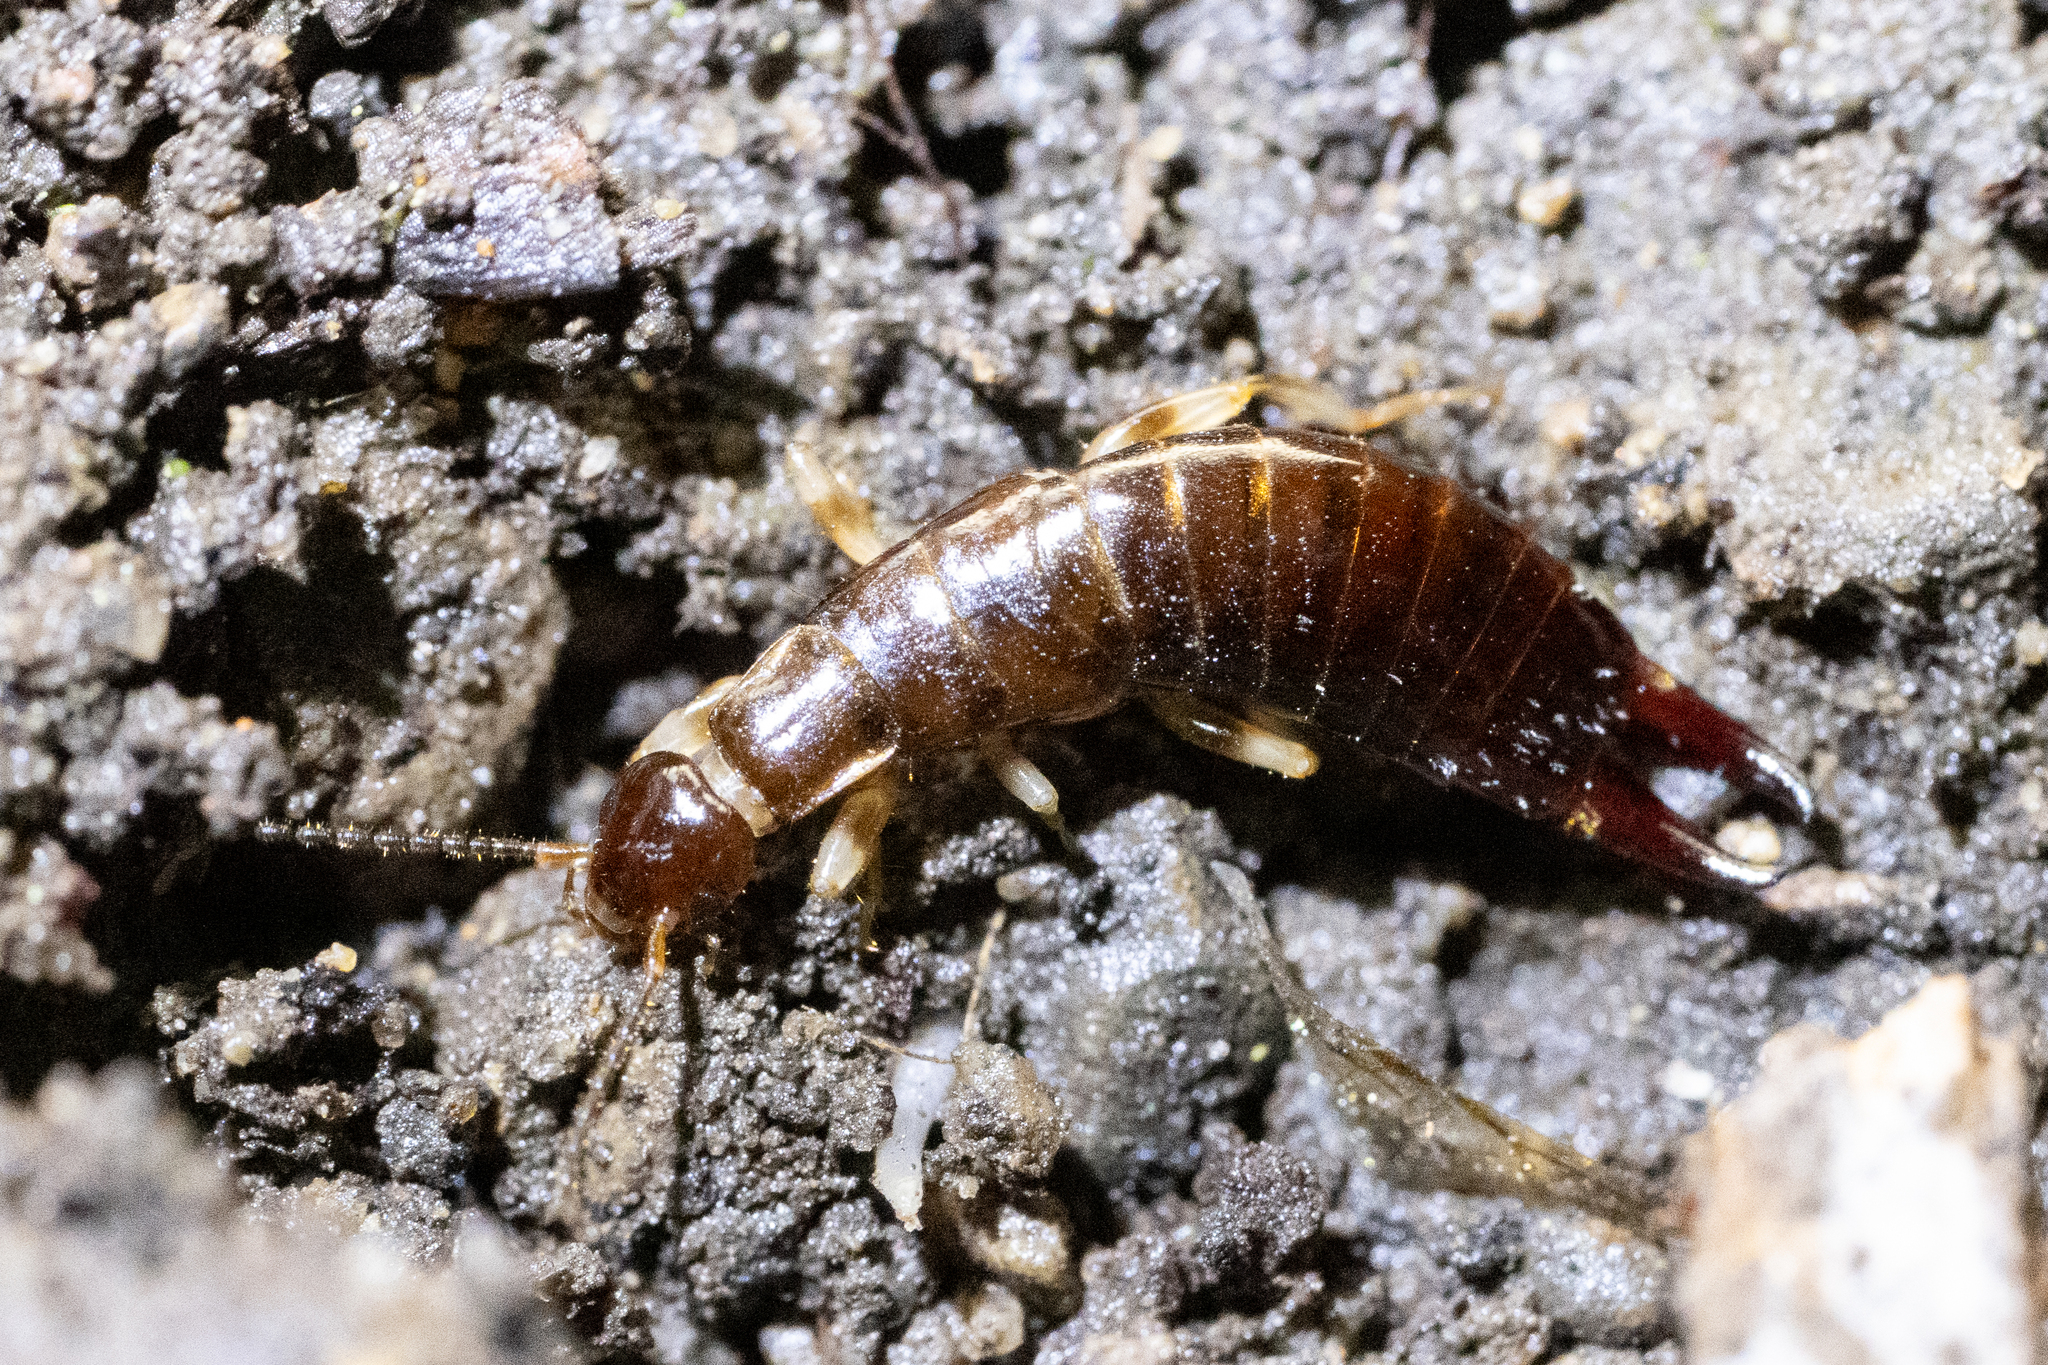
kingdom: Animalia
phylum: Arthropoda
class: Insecta
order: Dermaptera
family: Anisolabididae
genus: Euborellia
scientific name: Euborellia annulipes
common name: Ringlegged earwig
